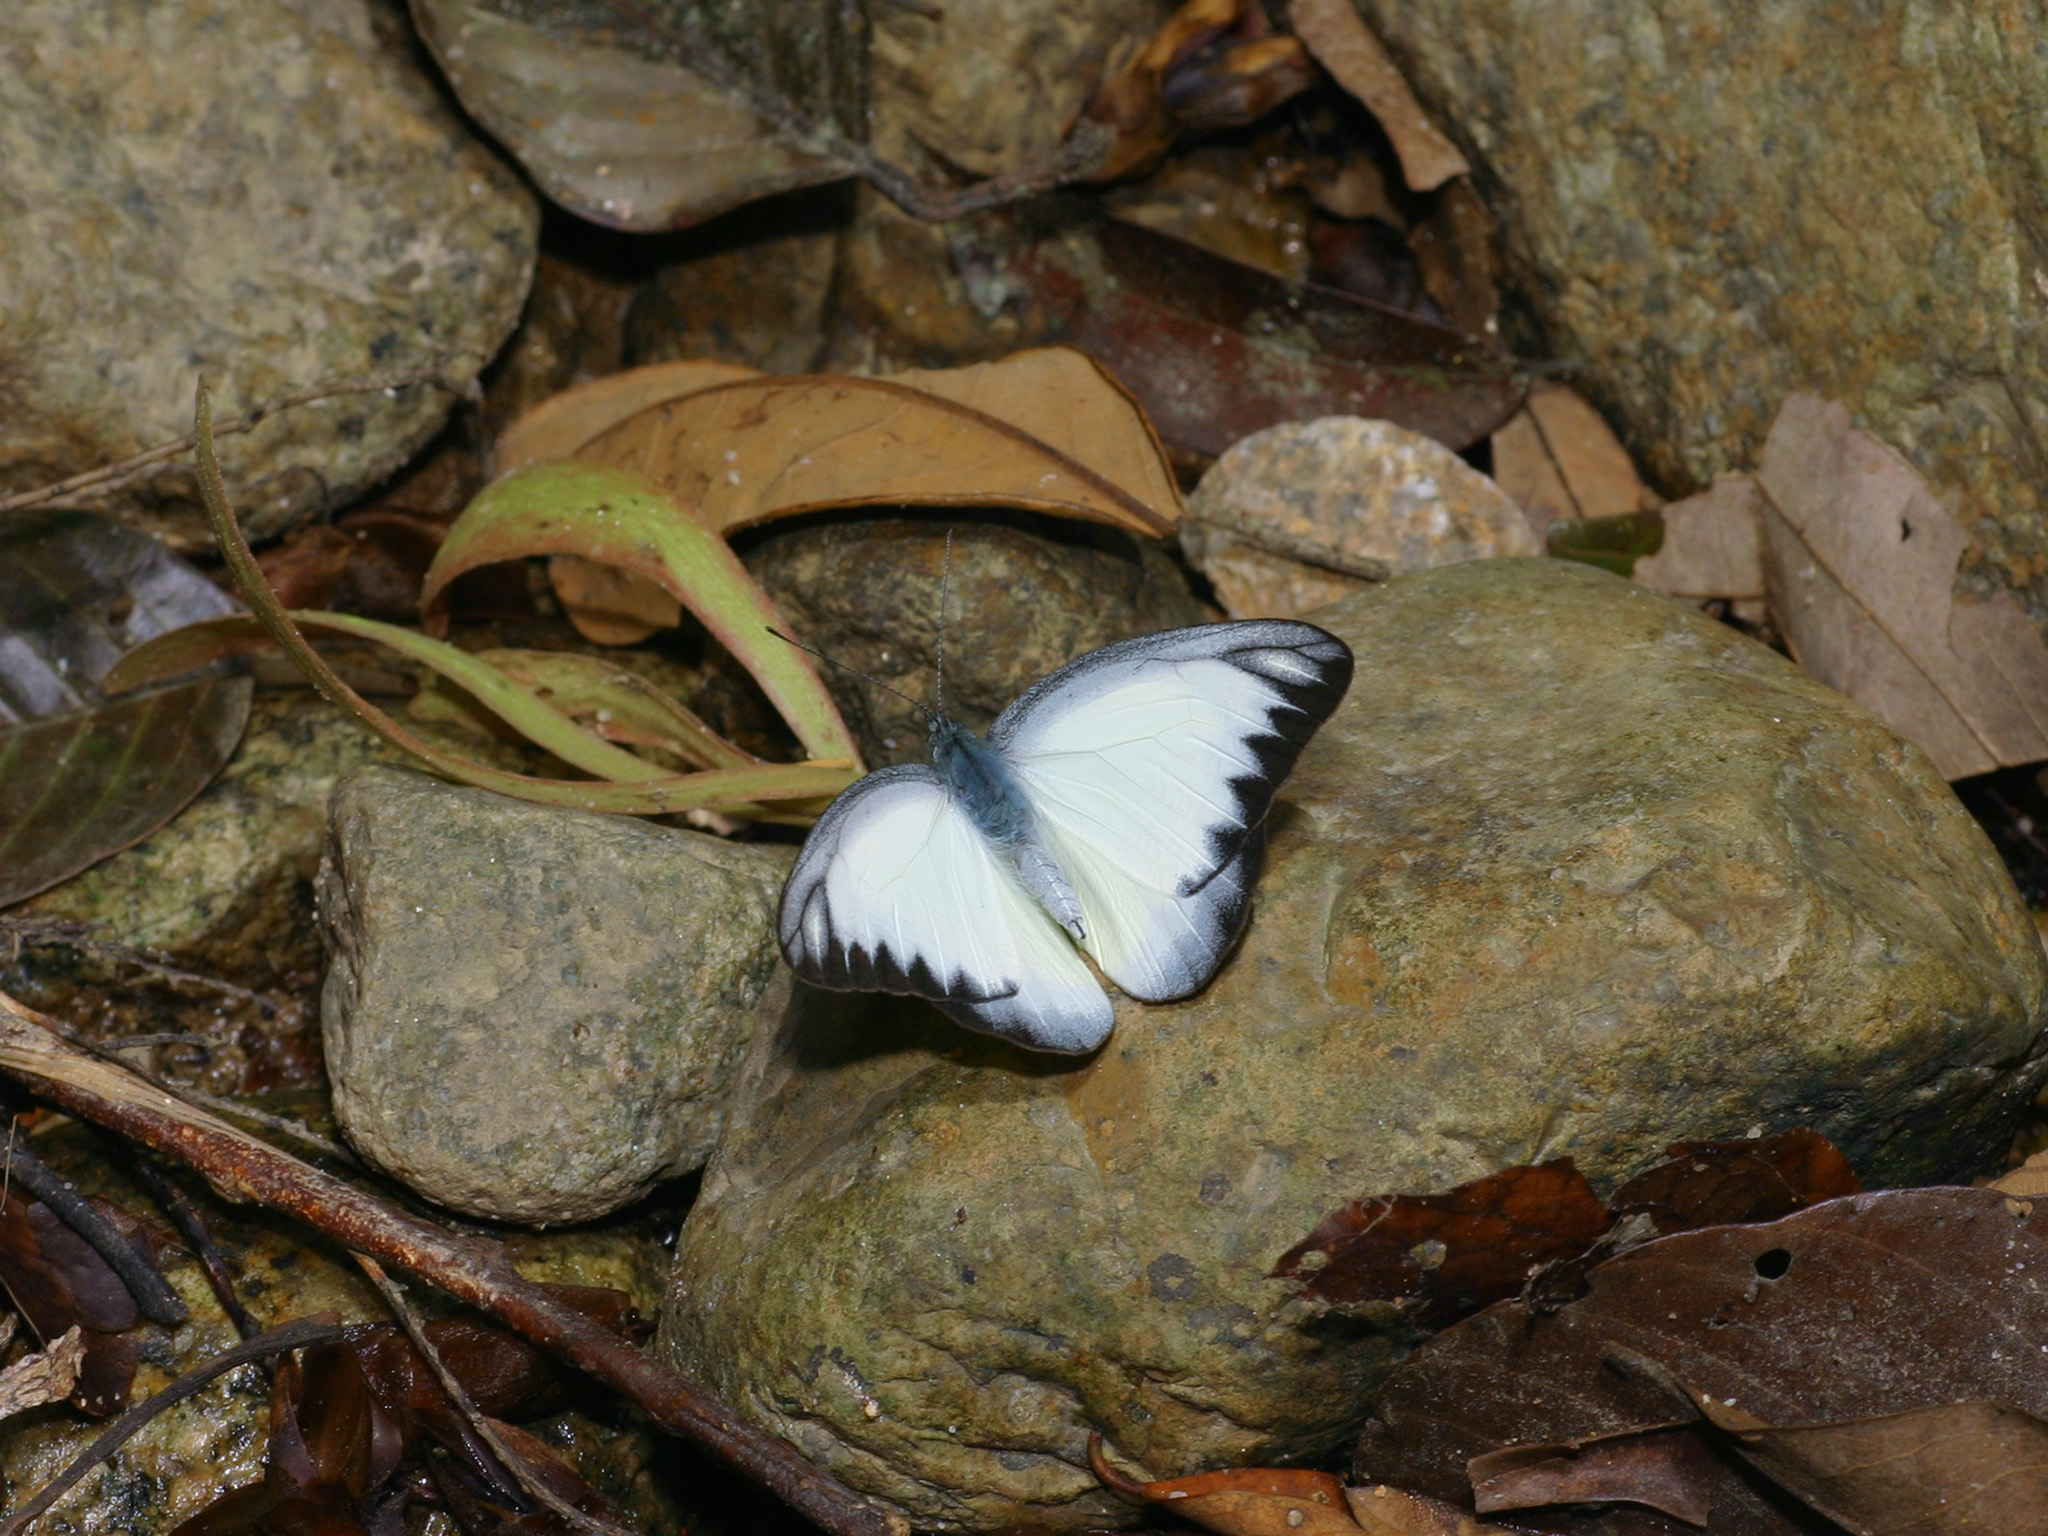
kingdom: Animalia
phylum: Arthropoda
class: Insecta
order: Lepidoptera
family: Pieridae
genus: Appias
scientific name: Appias lyncida
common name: Chocolate albatross
